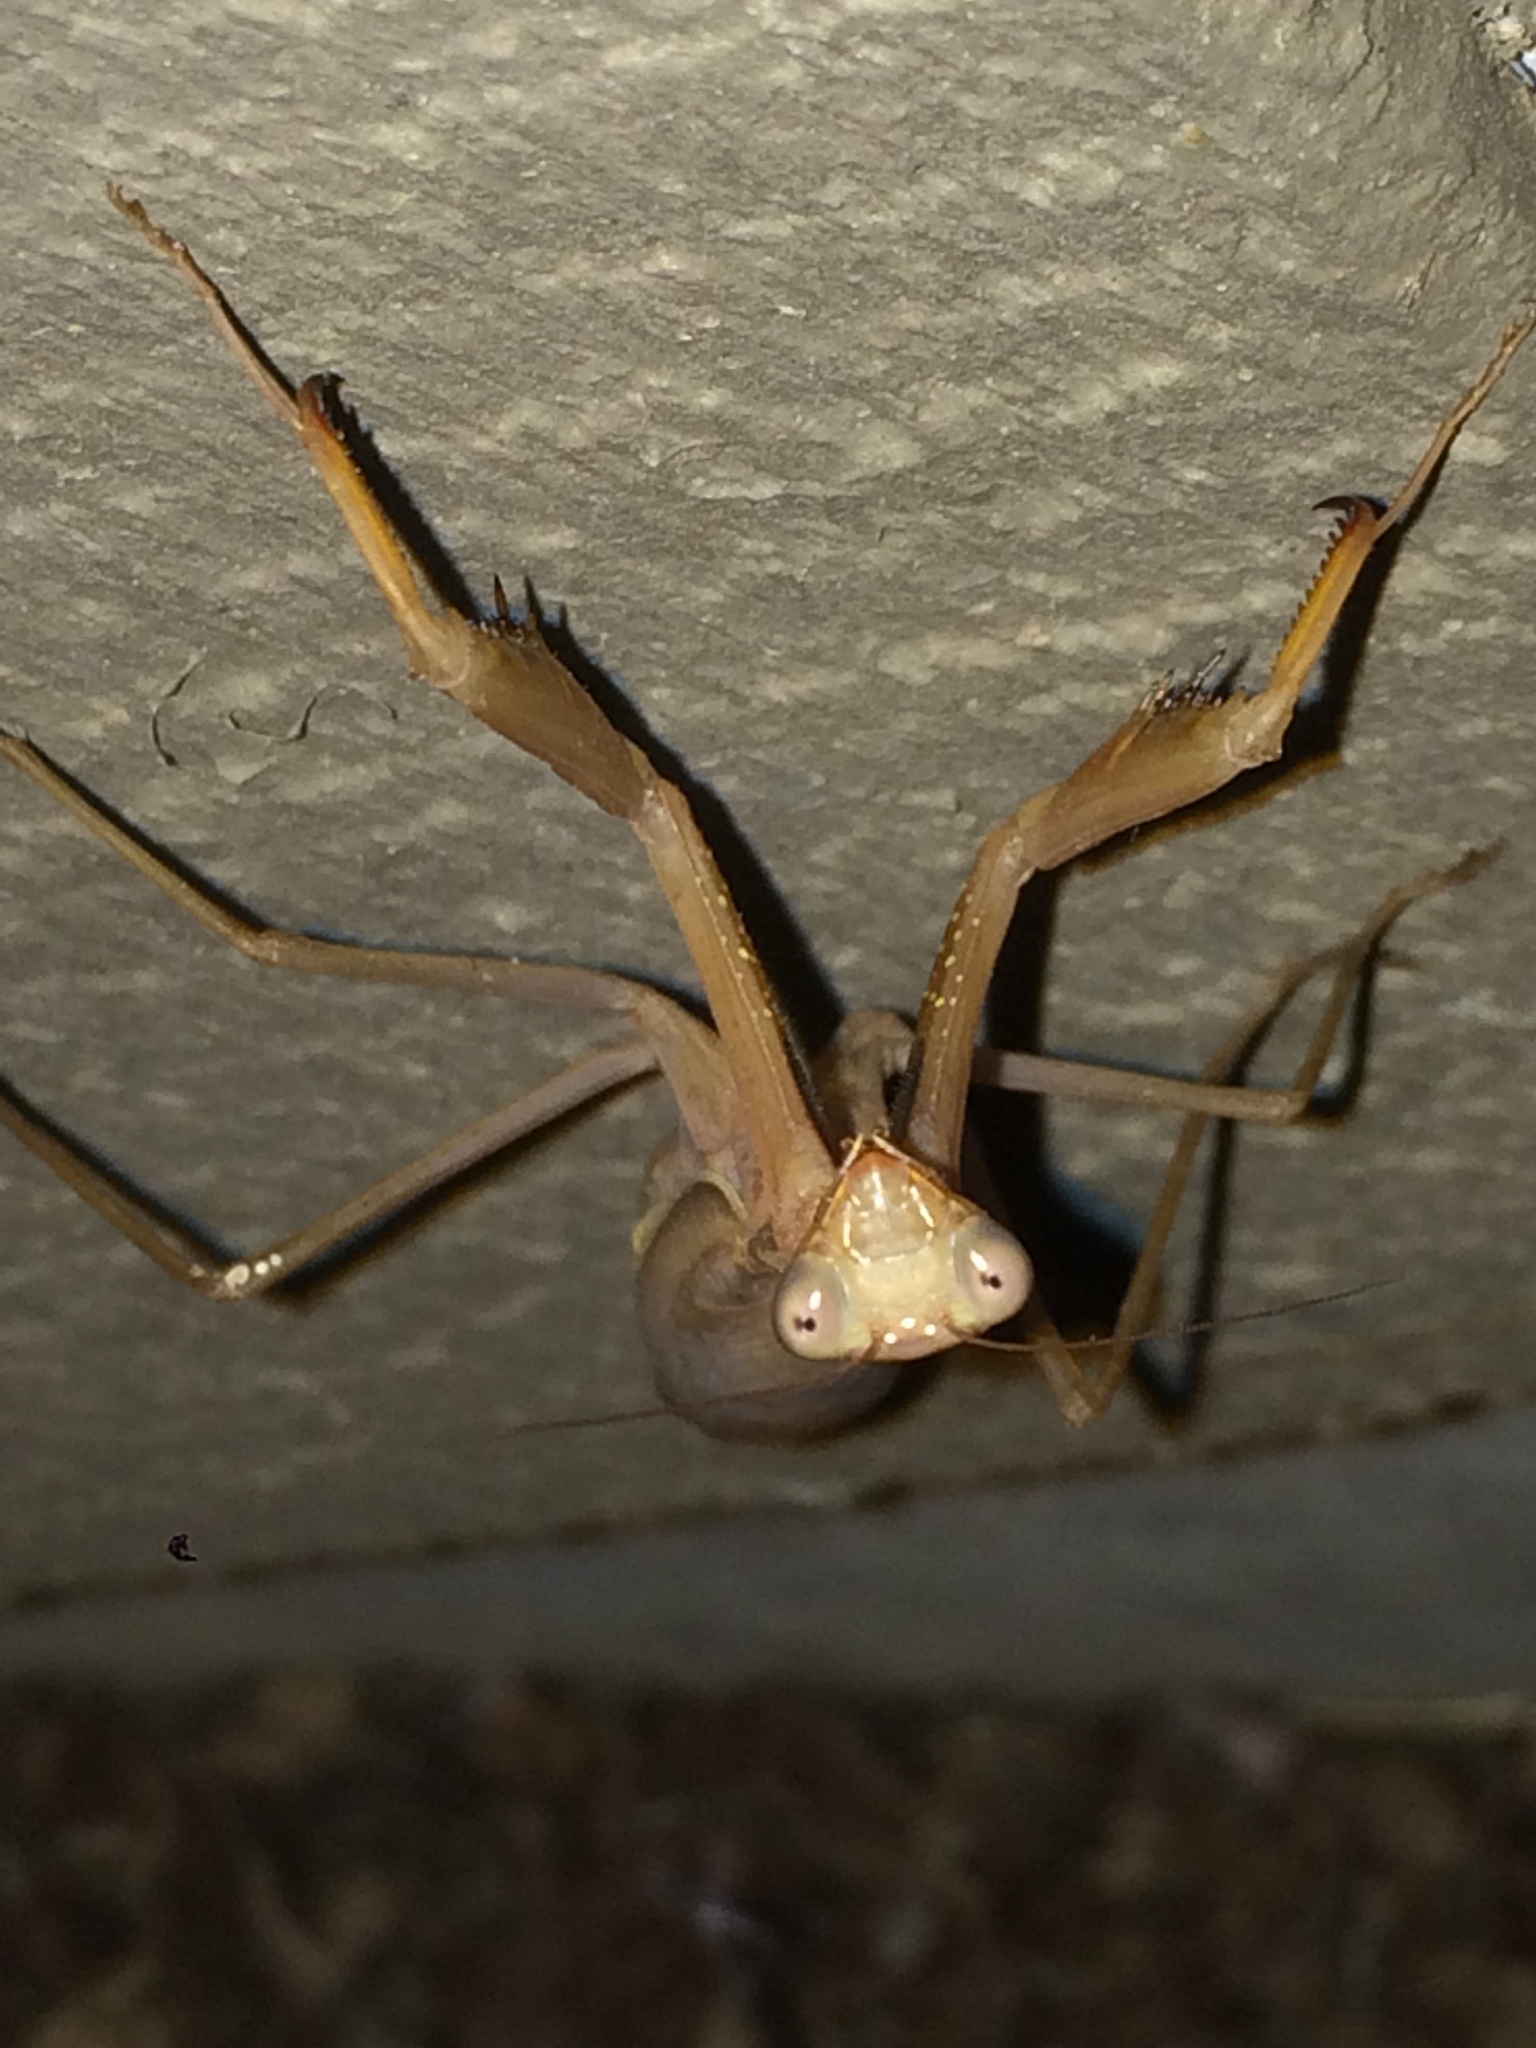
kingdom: Animalia
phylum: Arthropoda
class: Insecta
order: Mantodea
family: Mantidae
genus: Mantis
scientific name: Mantis religiosa
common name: Praying mantis
